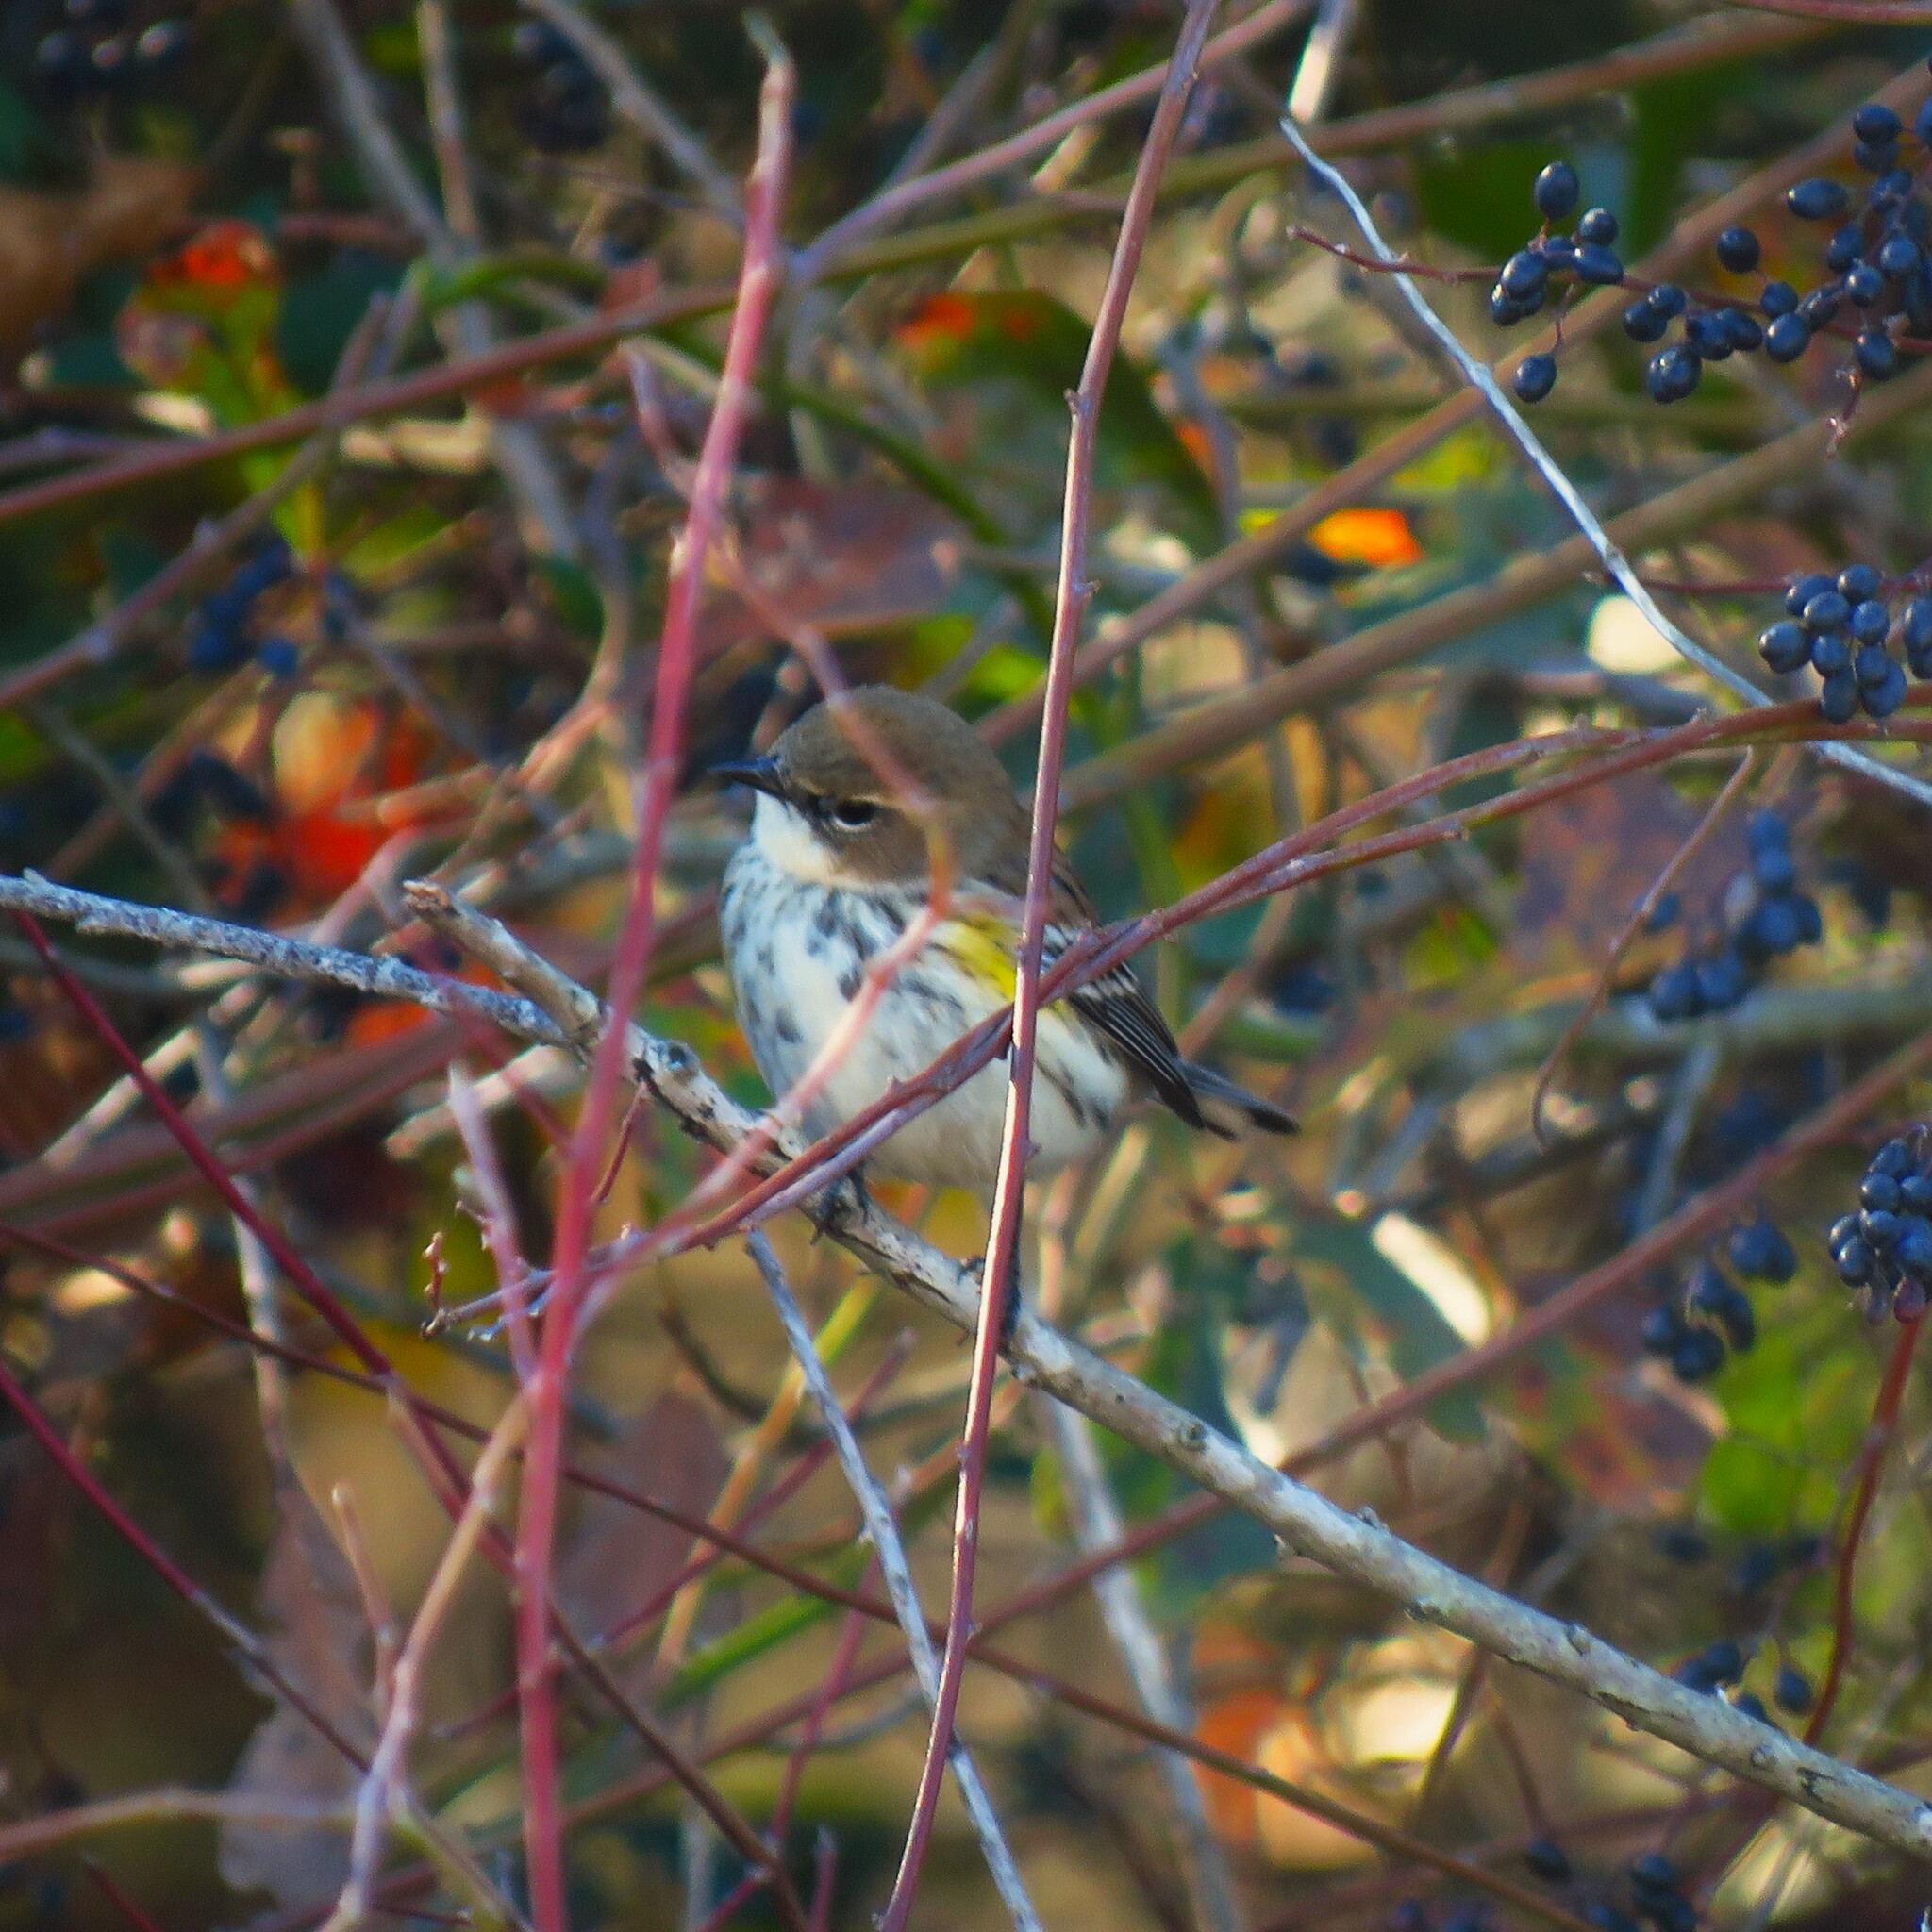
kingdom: Animalia
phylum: Chordata
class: Aves
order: Passeriformes
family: Parulidae
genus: Setophaga
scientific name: Setophaga coronata
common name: Myrtle warbler
